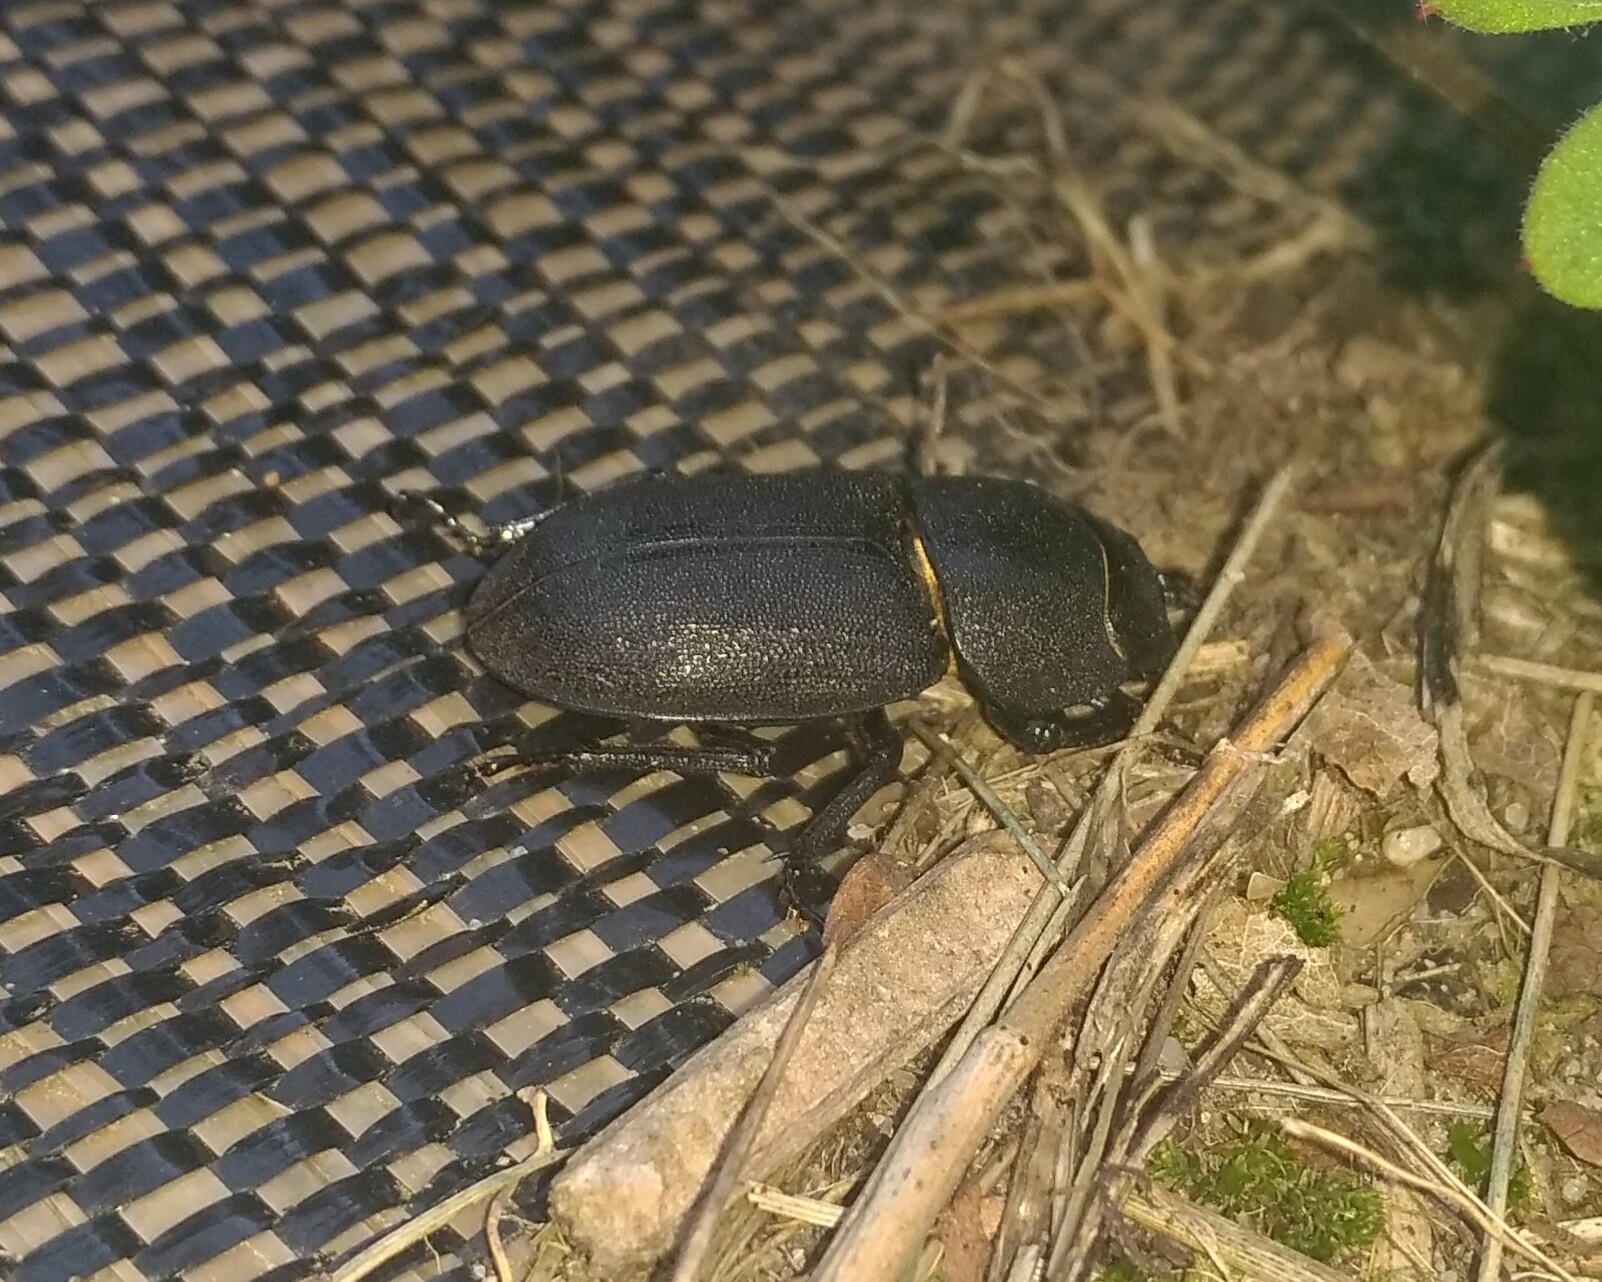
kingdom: Animalia
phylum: Arthropoda
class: Insecta
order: Coleoptera
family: Lucanidae
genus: Dorcus
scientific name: Dorcus parallelipipedus
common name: Lesser stag beetle
